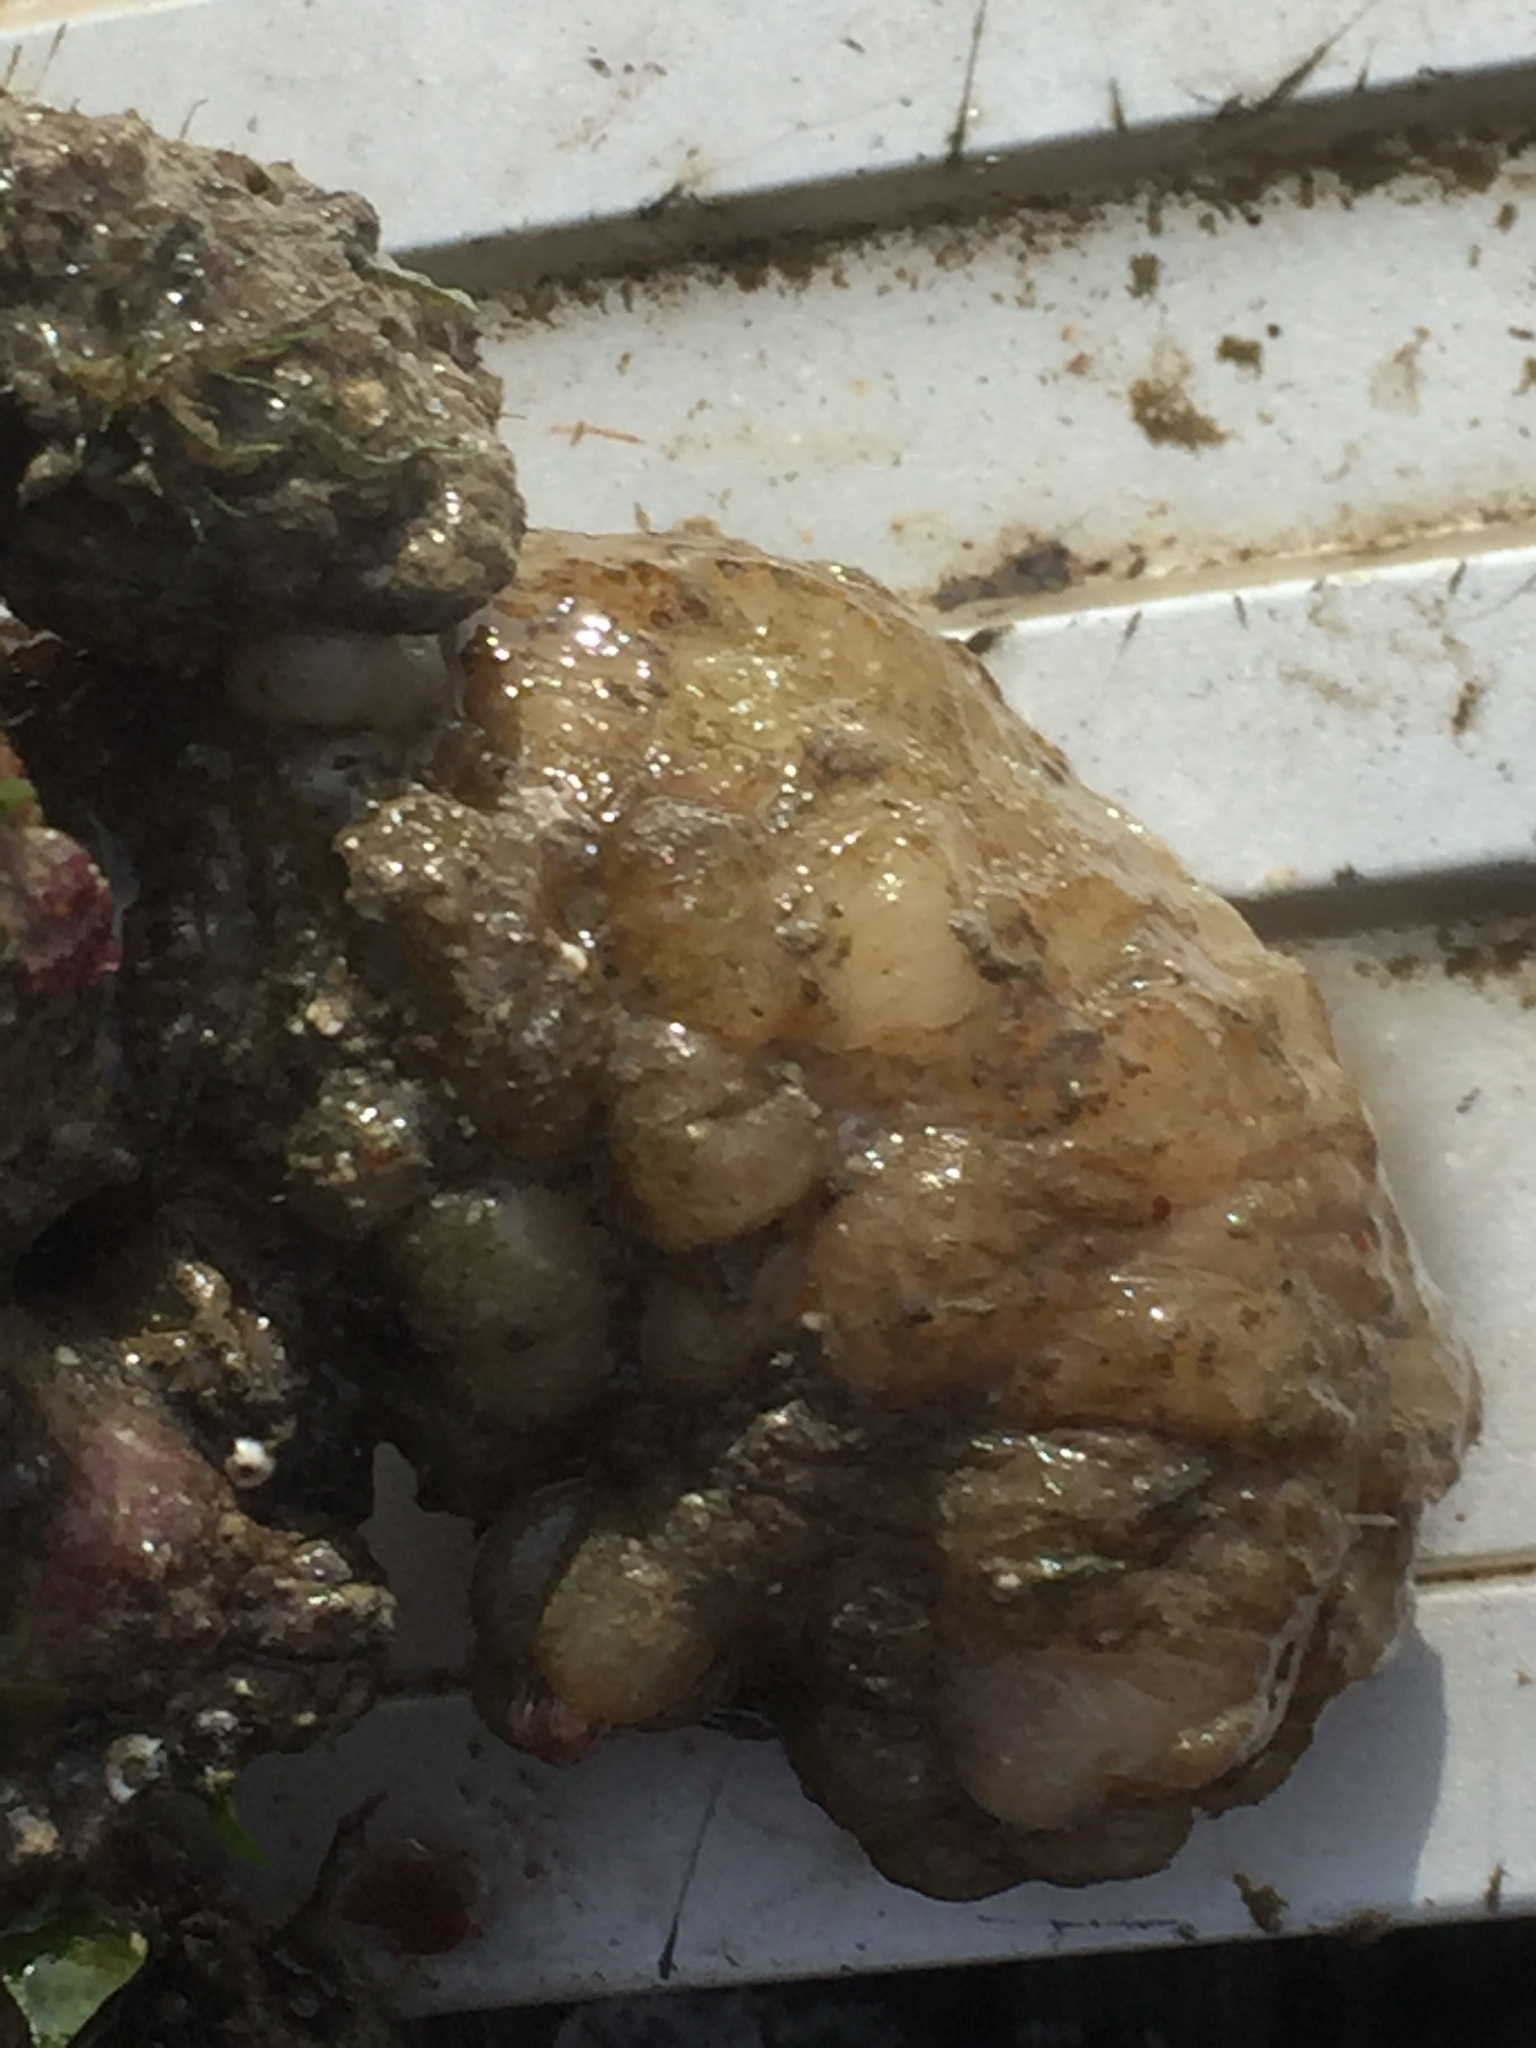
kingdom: Animalia
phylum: Chordata
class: Ascidiacea
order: Stolidobranchia
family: Styelidae
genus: Styela
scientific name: Styela plicata
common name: Pleated tunicate
